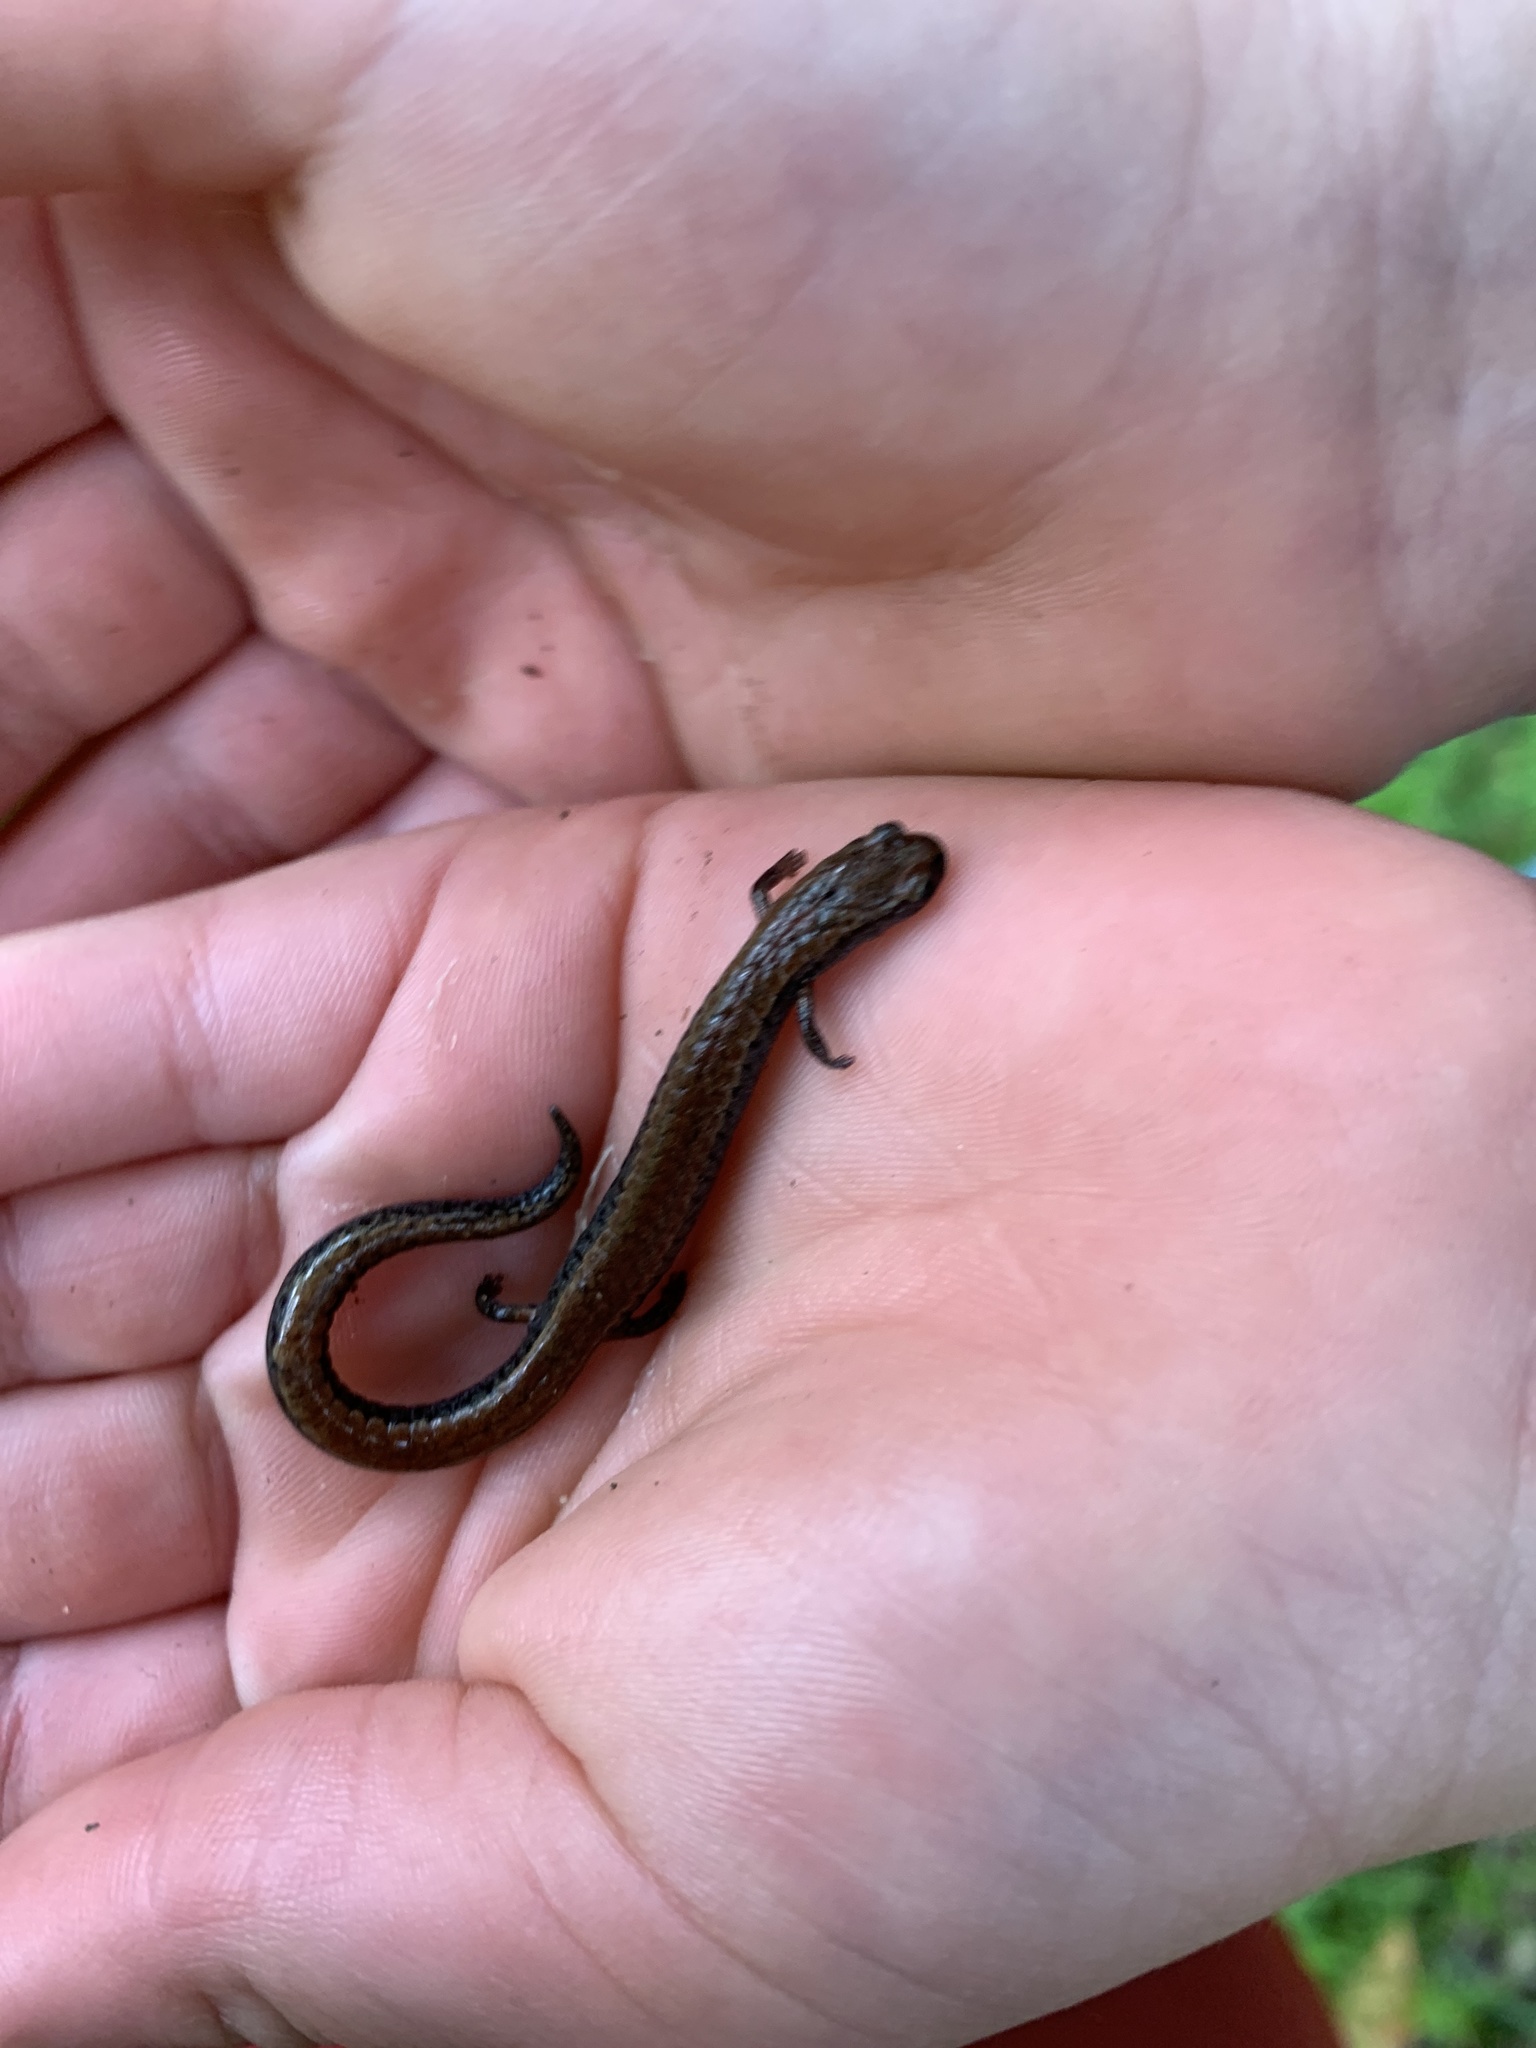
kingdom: Animalia
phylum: Chordata
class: Amphibia
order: Caudata
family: Plethodontidae
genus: Batrachoseps
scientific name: Batrachoseps attenuatus
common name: California slender salamander
